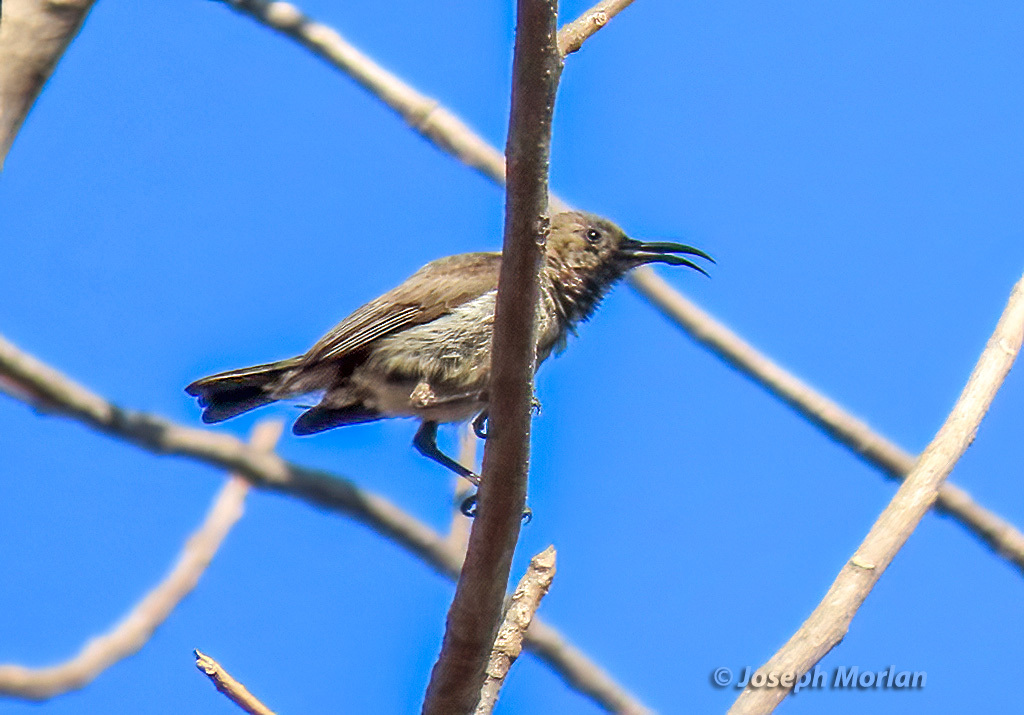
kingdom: Animalia
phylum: Chordata
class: Aves
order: Passeriformes
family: Nectariniidae
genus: Chalcomitra
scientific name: Chalcomitra senegalensis
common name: Scarlet-chested sunbird
